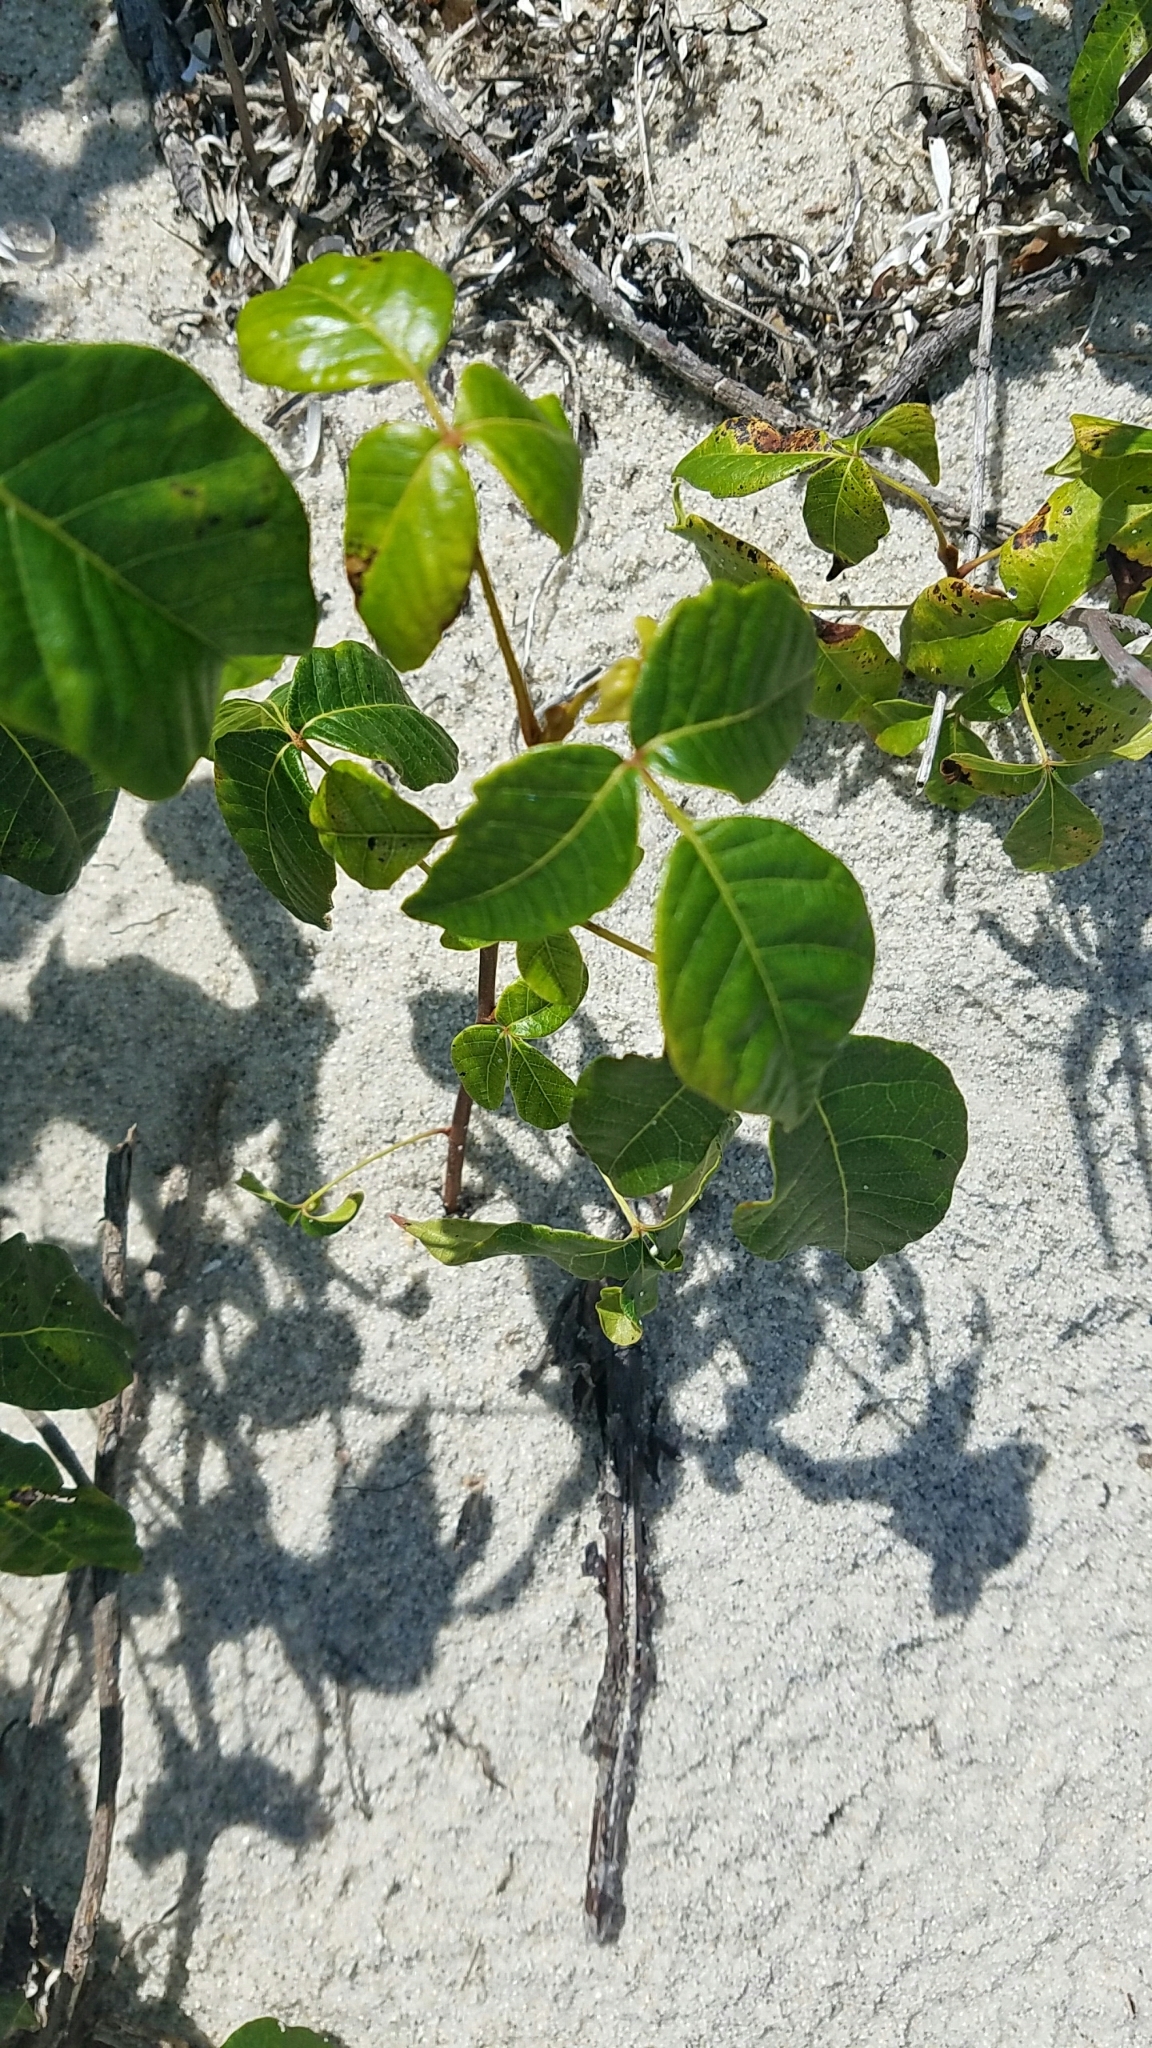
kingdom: Plantae
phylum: Tracheophyta
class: Magnoliopsida
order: Sapindales
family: Anacardiaceae
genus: Toxicodendron
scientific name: Toxicodendron radicans
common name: Poison ivy
